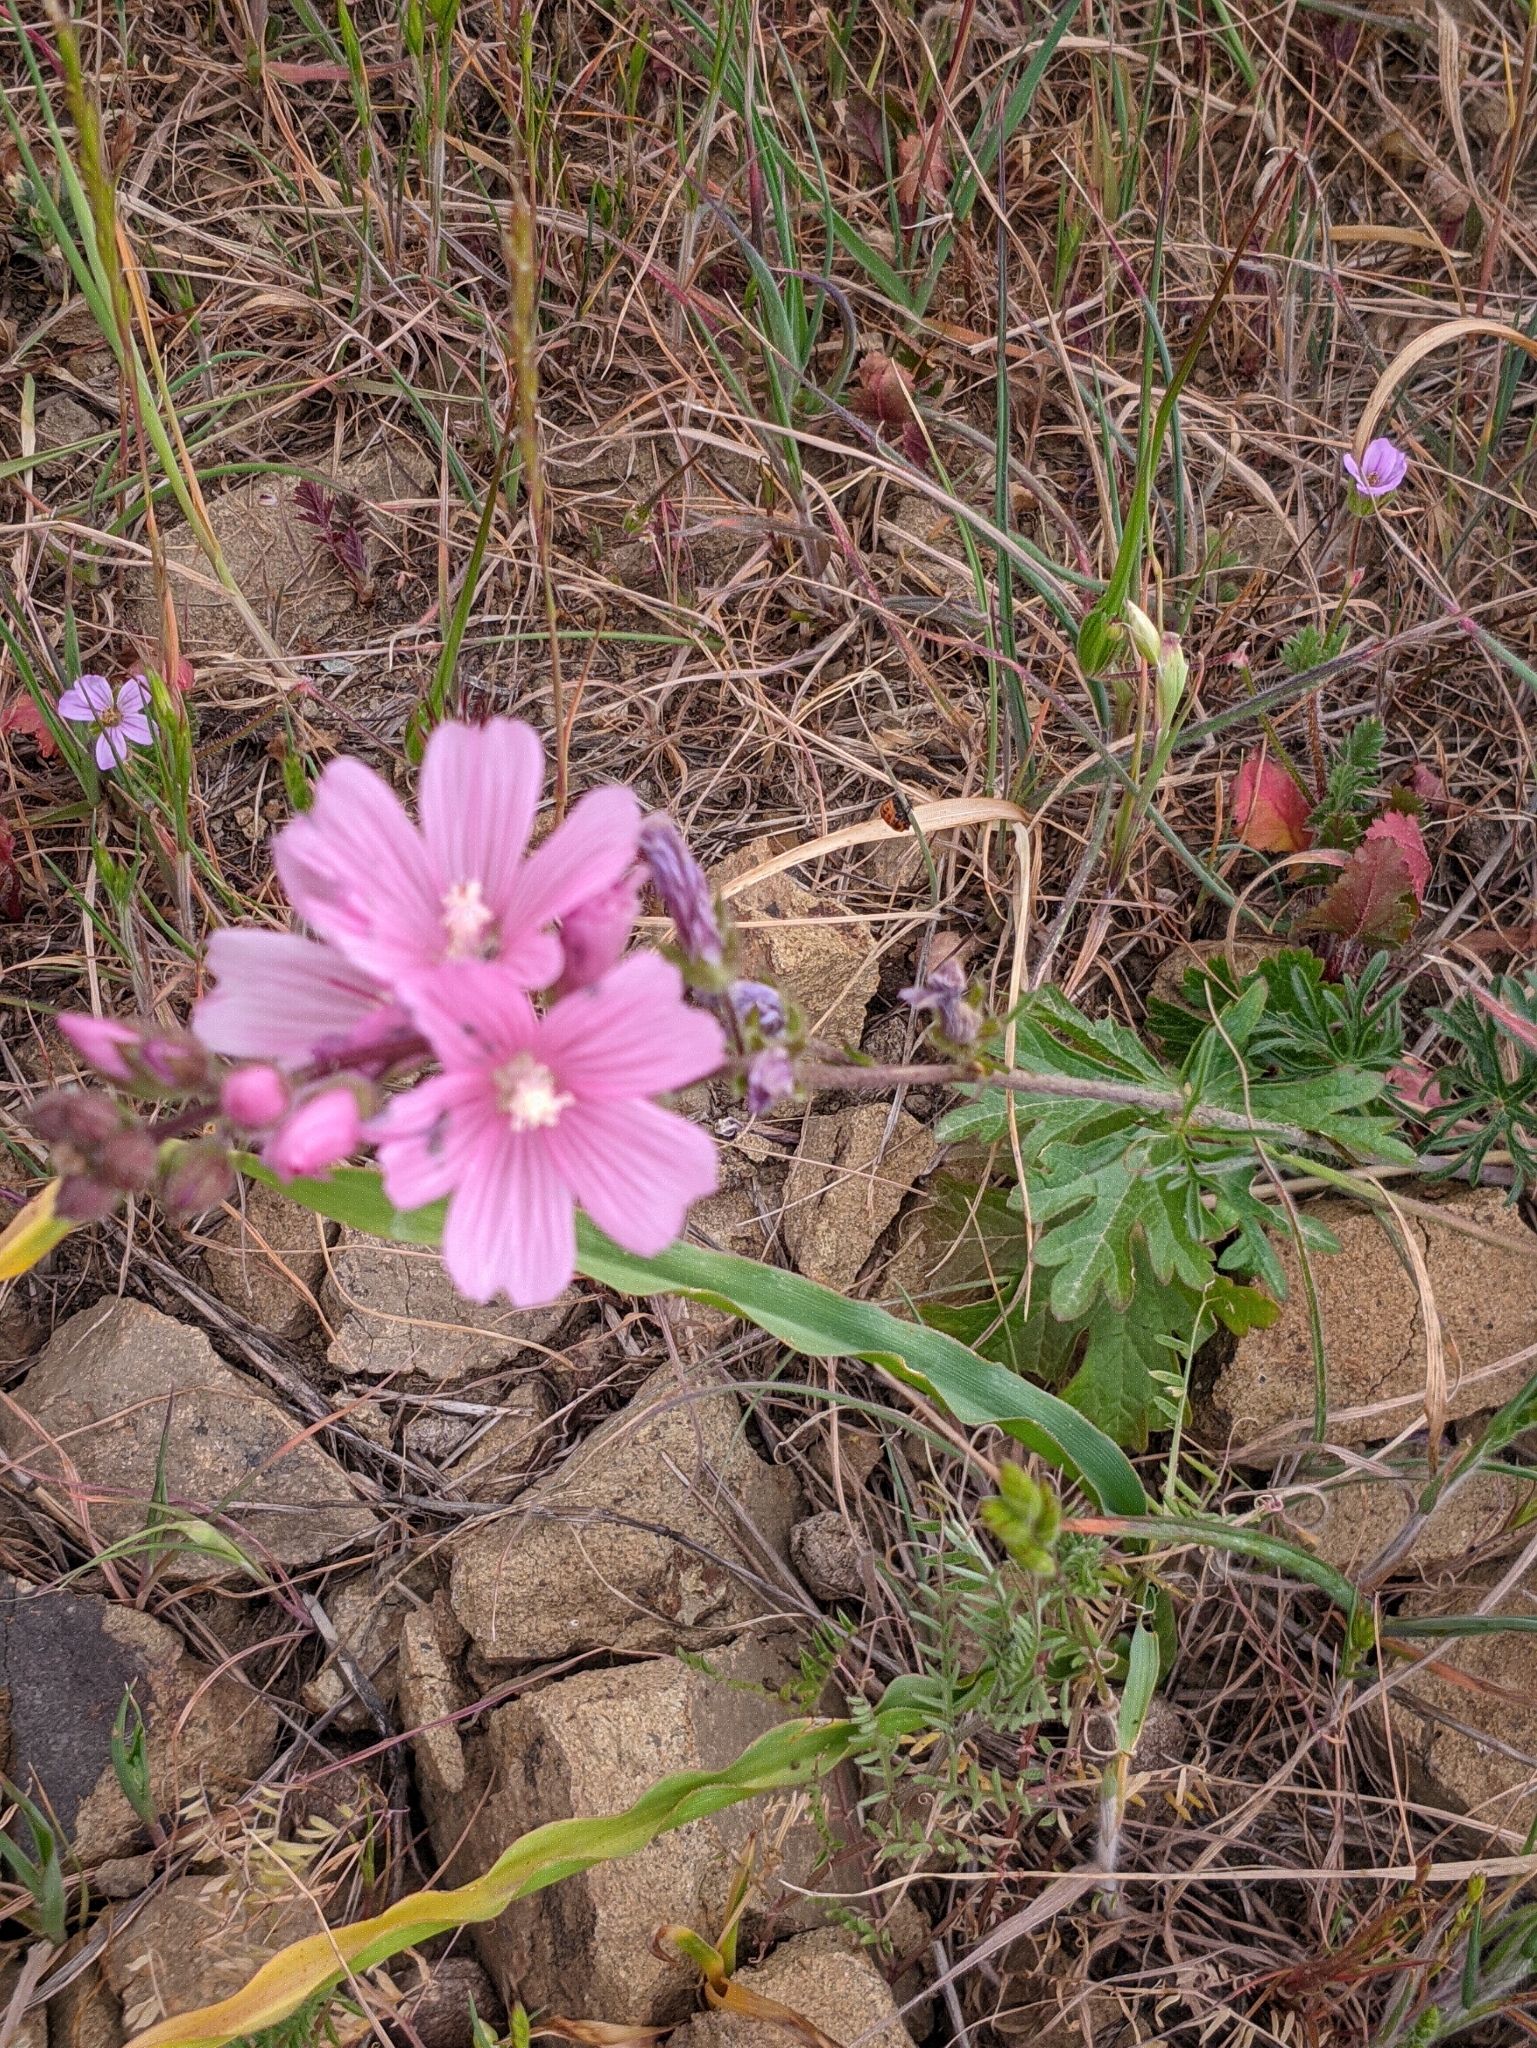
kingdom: Plantae
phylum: Tracheophyta
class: Magnoliopsida
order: Malvales
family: Malvaceae
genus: Sidalcea
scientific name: Sidalcea malviflora
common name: Greek mallow
